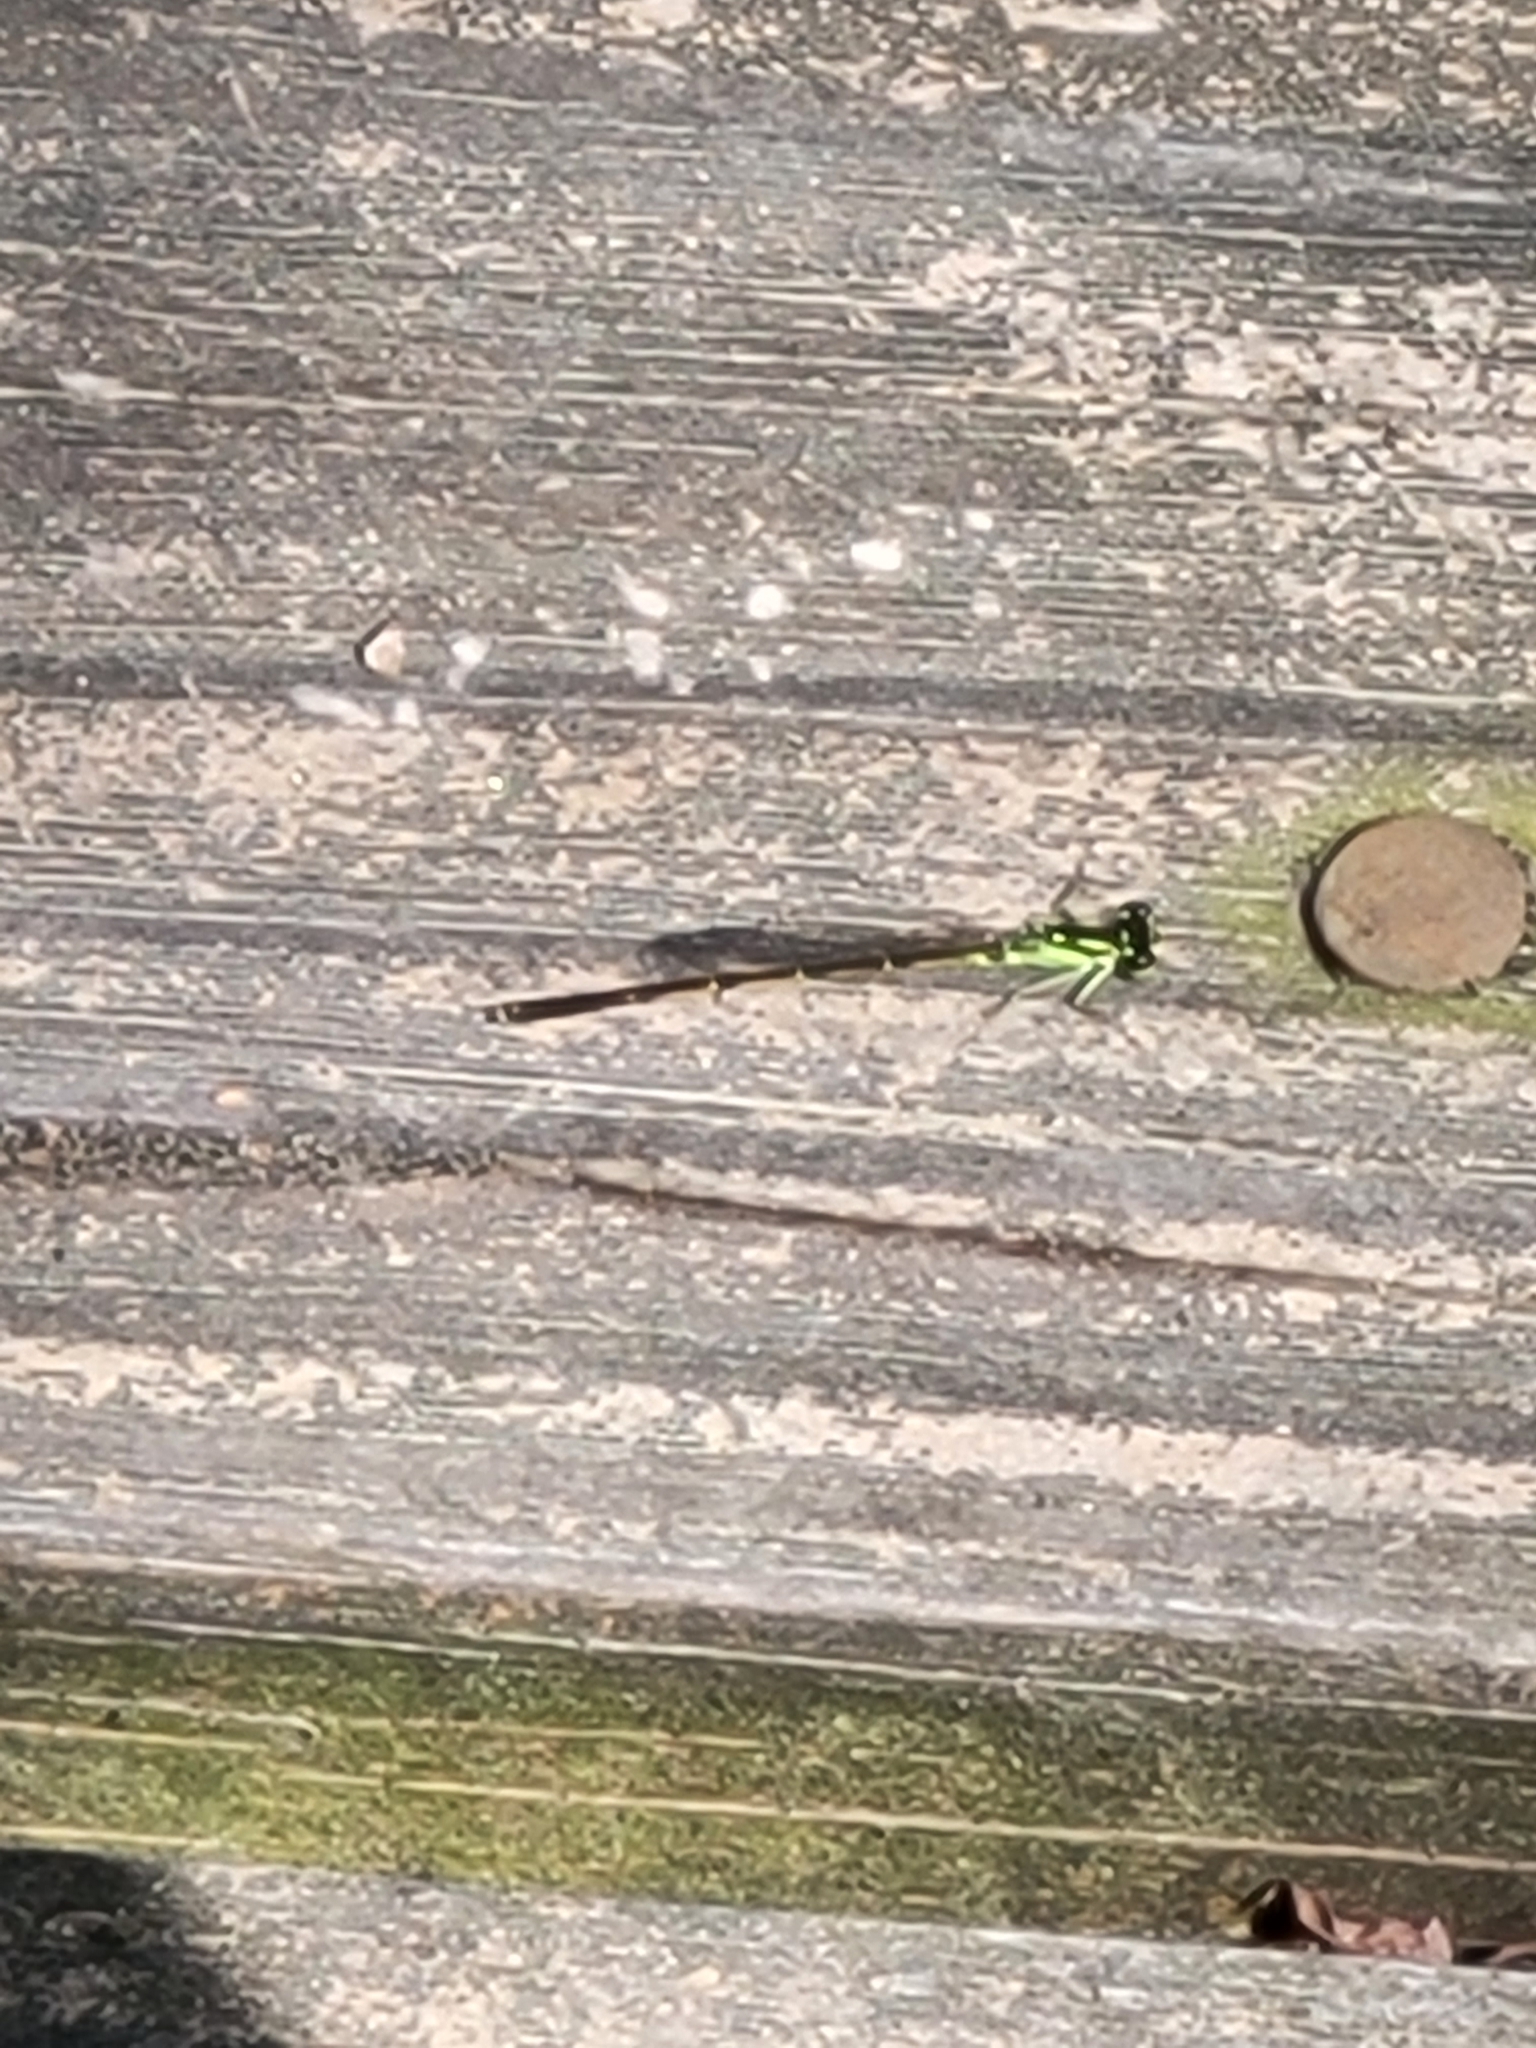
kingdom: Animalia
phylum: Arthropoda
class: Insecta
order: Odonata
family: Coenagrionidae
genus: Ischnura
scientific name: Ischnura posita
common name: Fragile forktail
